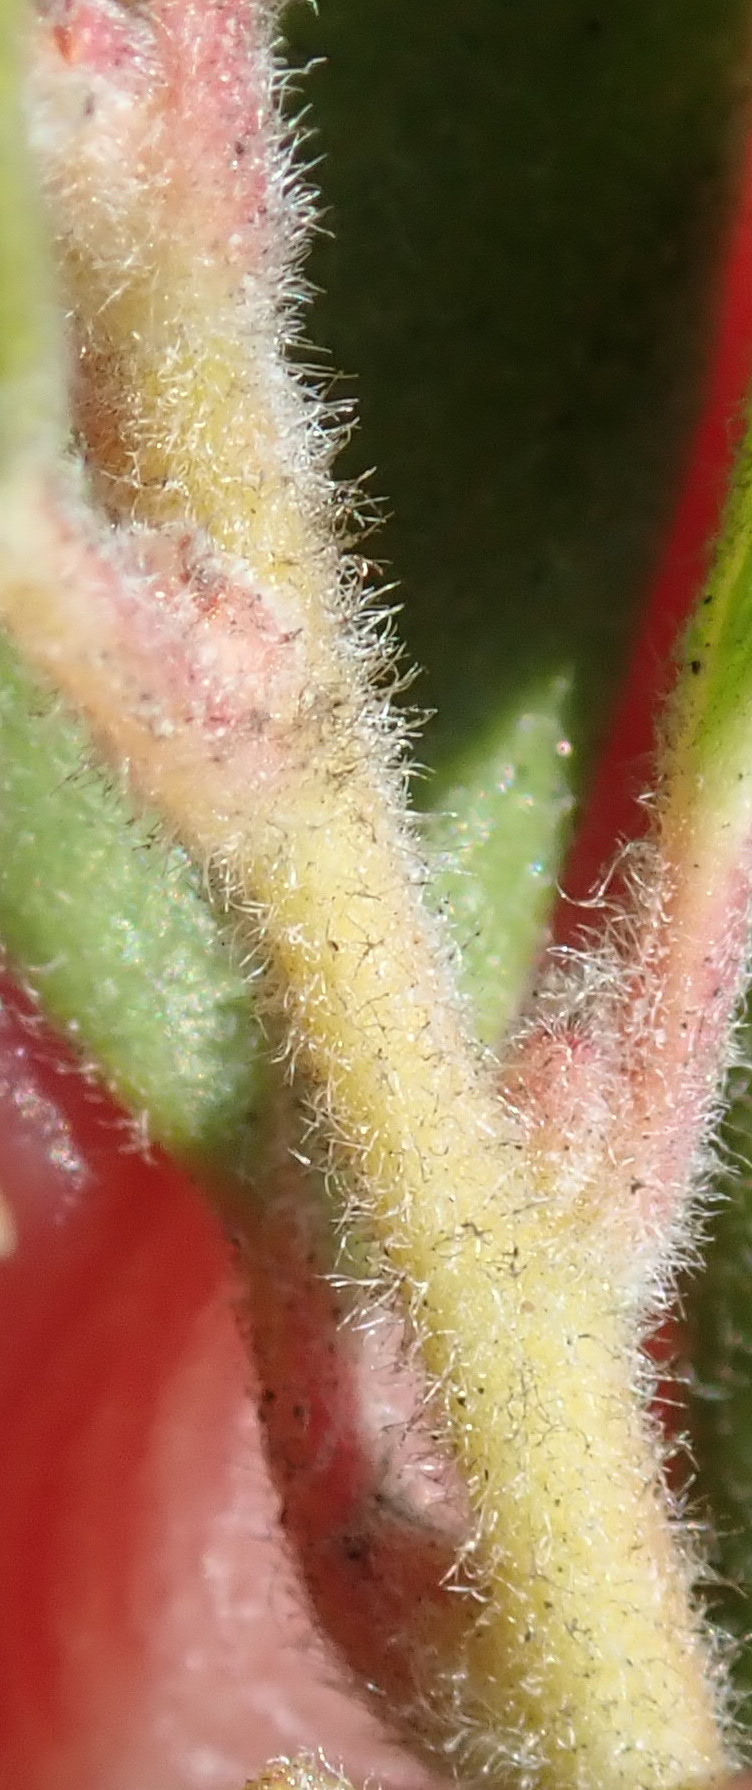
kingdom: Plantae
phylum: Tracheophyta
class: Magnoliopsida
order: Ericales
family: Ericaceae
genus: Arctostaphylos
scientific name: Arctostaphylos pumila
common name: Sandmat manzanita
